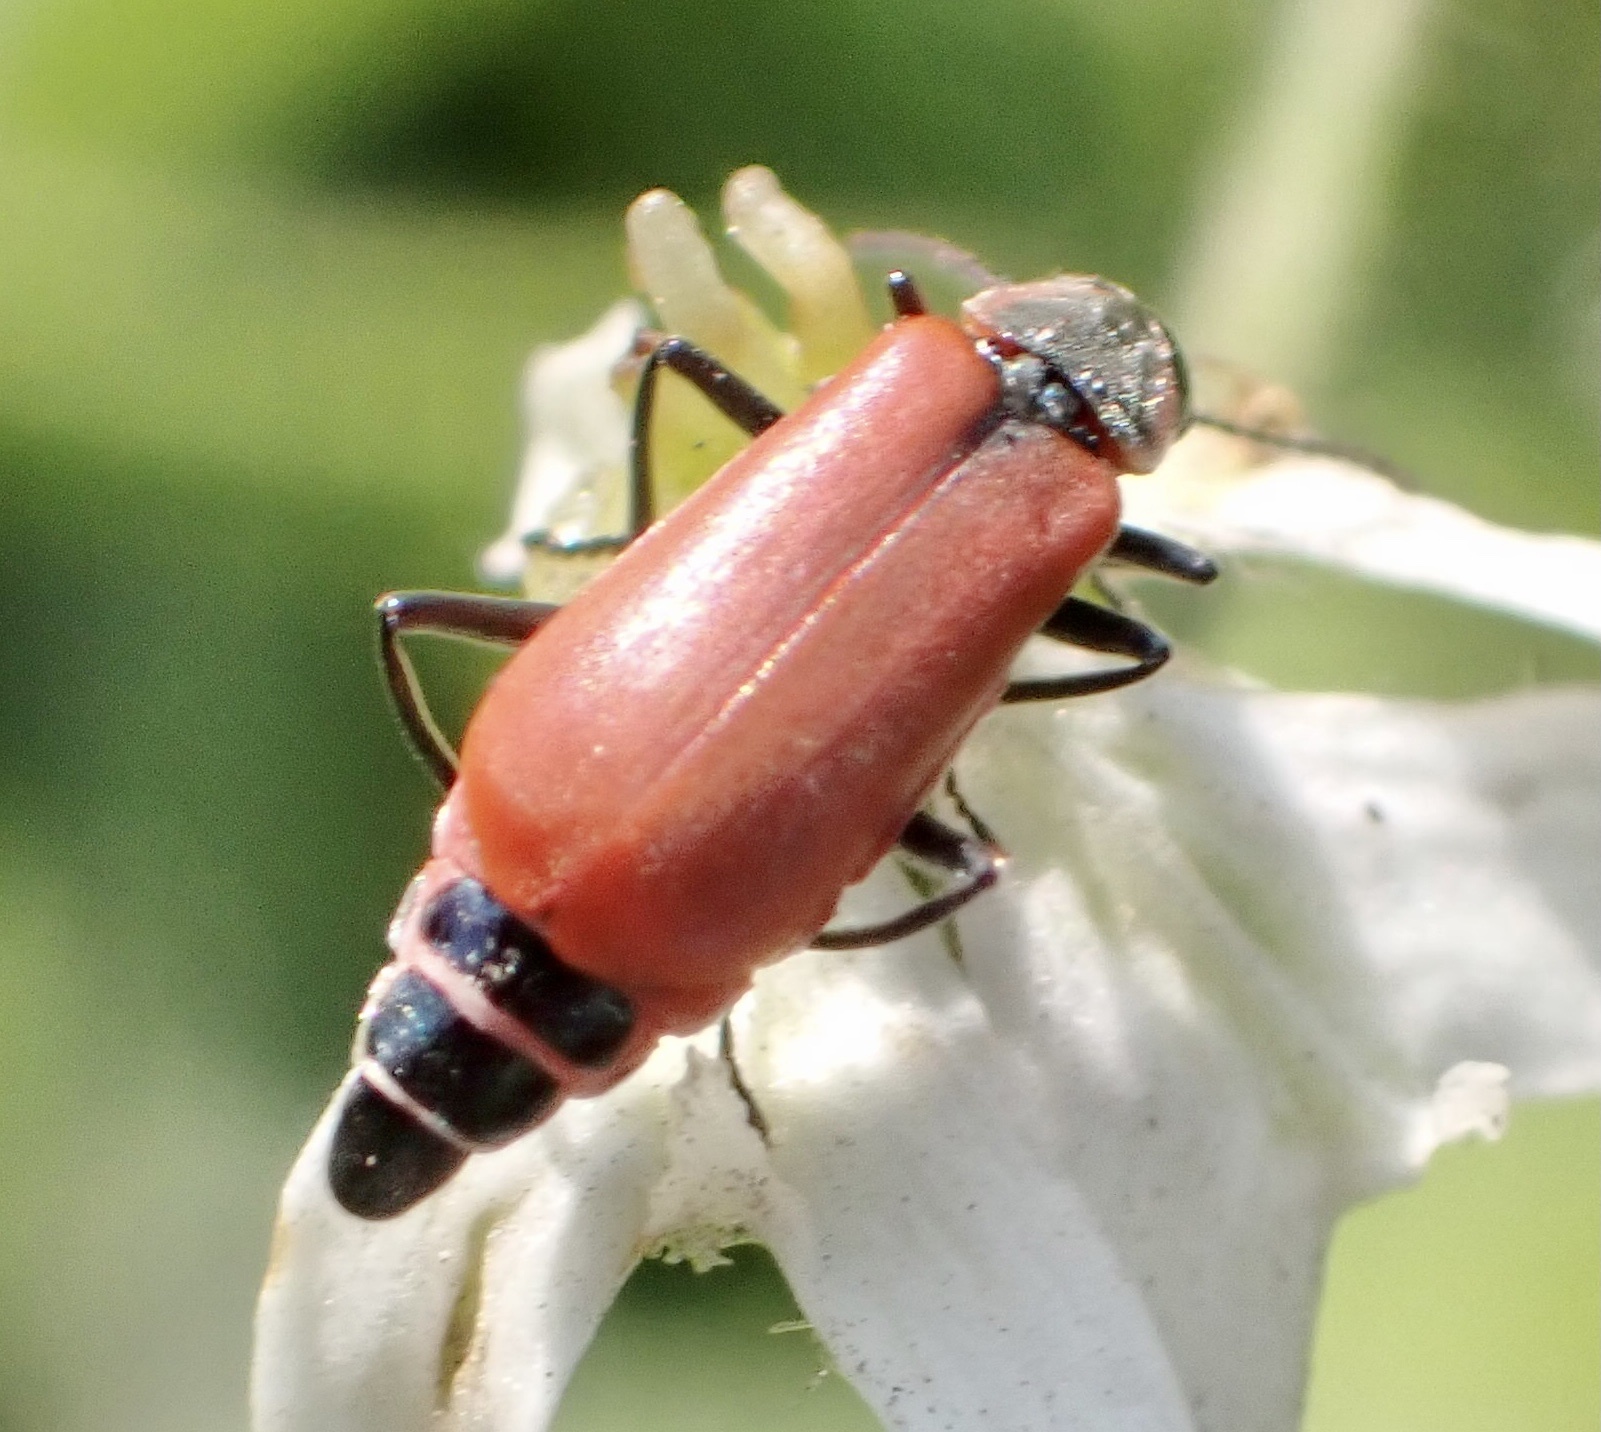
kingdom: Animalia
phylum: Arthropoda
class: Insecta
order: Coleoptera
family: Melyridae
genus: Anthocomus
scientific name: Anthocomus rufus
